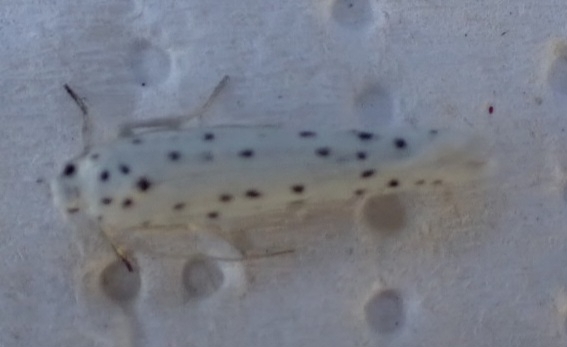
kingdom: Animalia
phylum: Arthropoda
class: Insecta
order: Lepidoptera
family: Yponomeutidae
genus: Yponomeuta
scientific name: Yponomeuta
